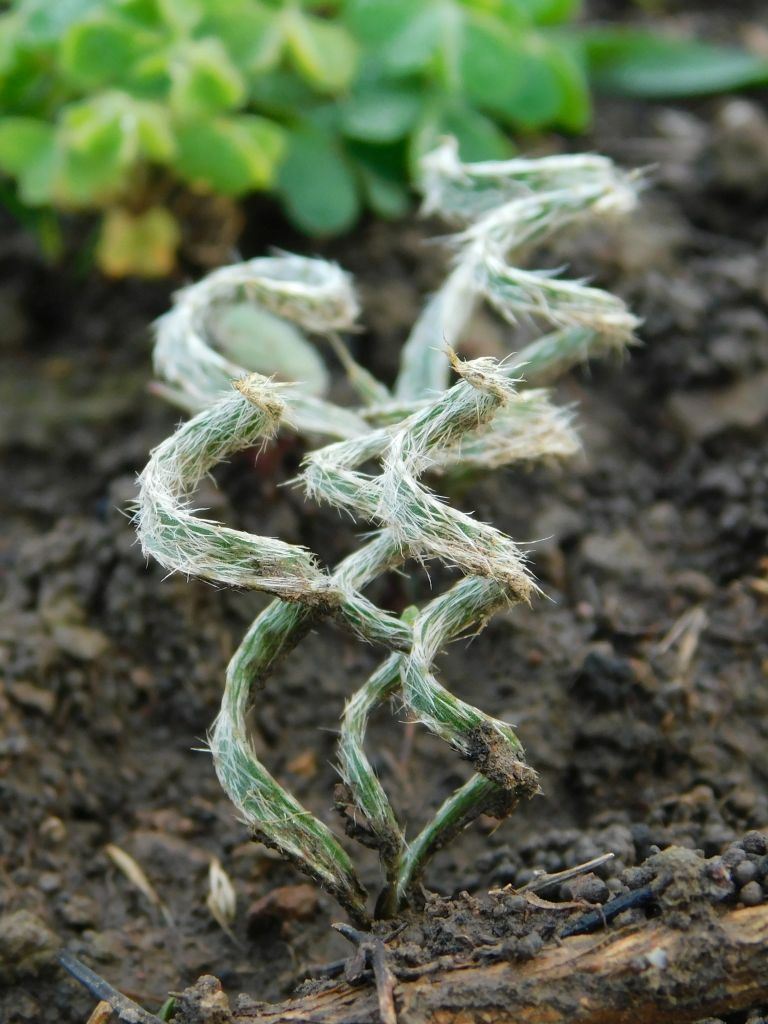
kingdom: Plantae
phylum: Tracheophyta
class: Liliopsida
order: Asparagales
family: Amaryllidaceae
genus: Gethyllis
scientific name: Gethyllis villosa
